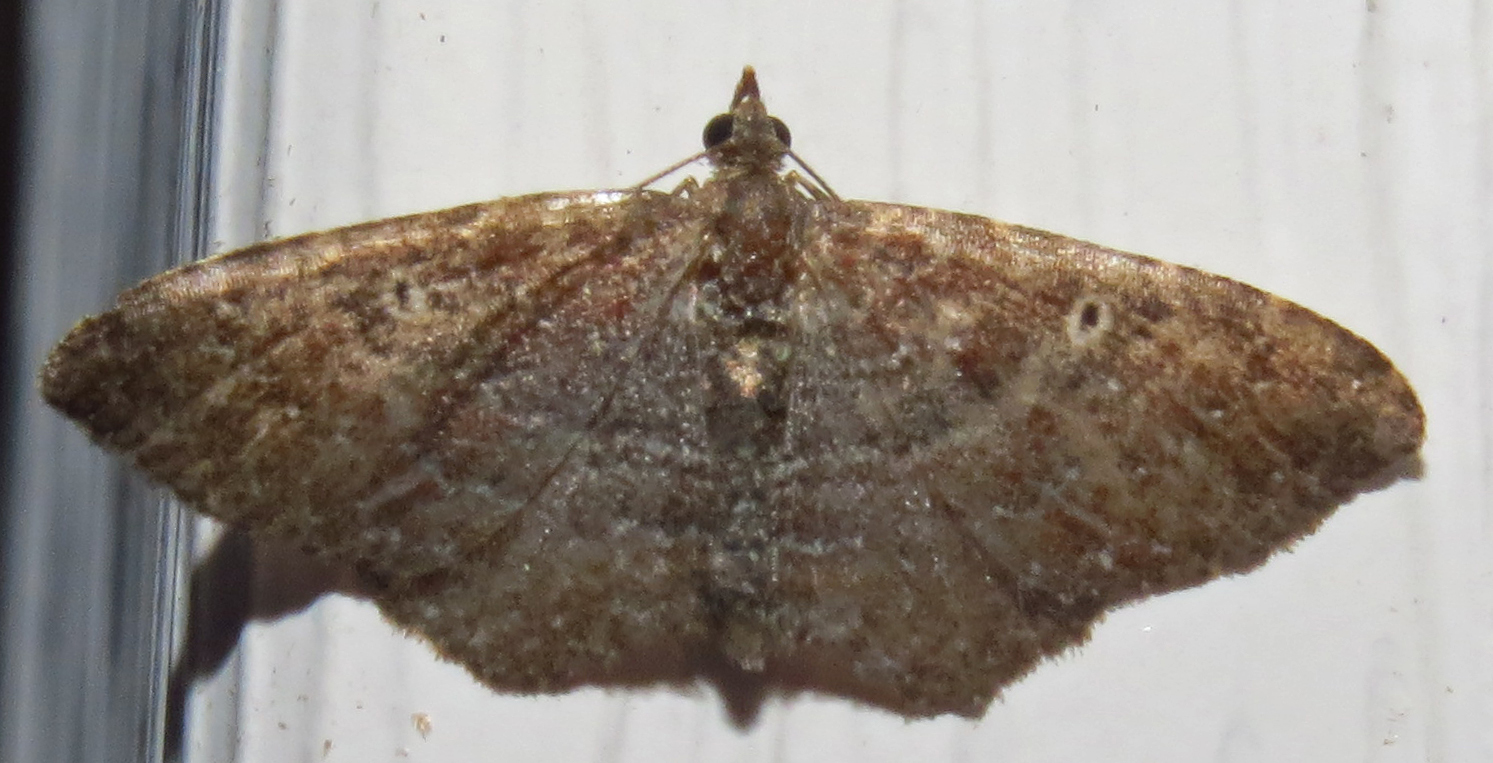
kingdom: Animalia
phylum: Arthropoda
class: Insecta
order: Lepidoptera
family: Geometridae
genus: Orthonama
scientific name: Orthonama obstipata
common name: The gem
